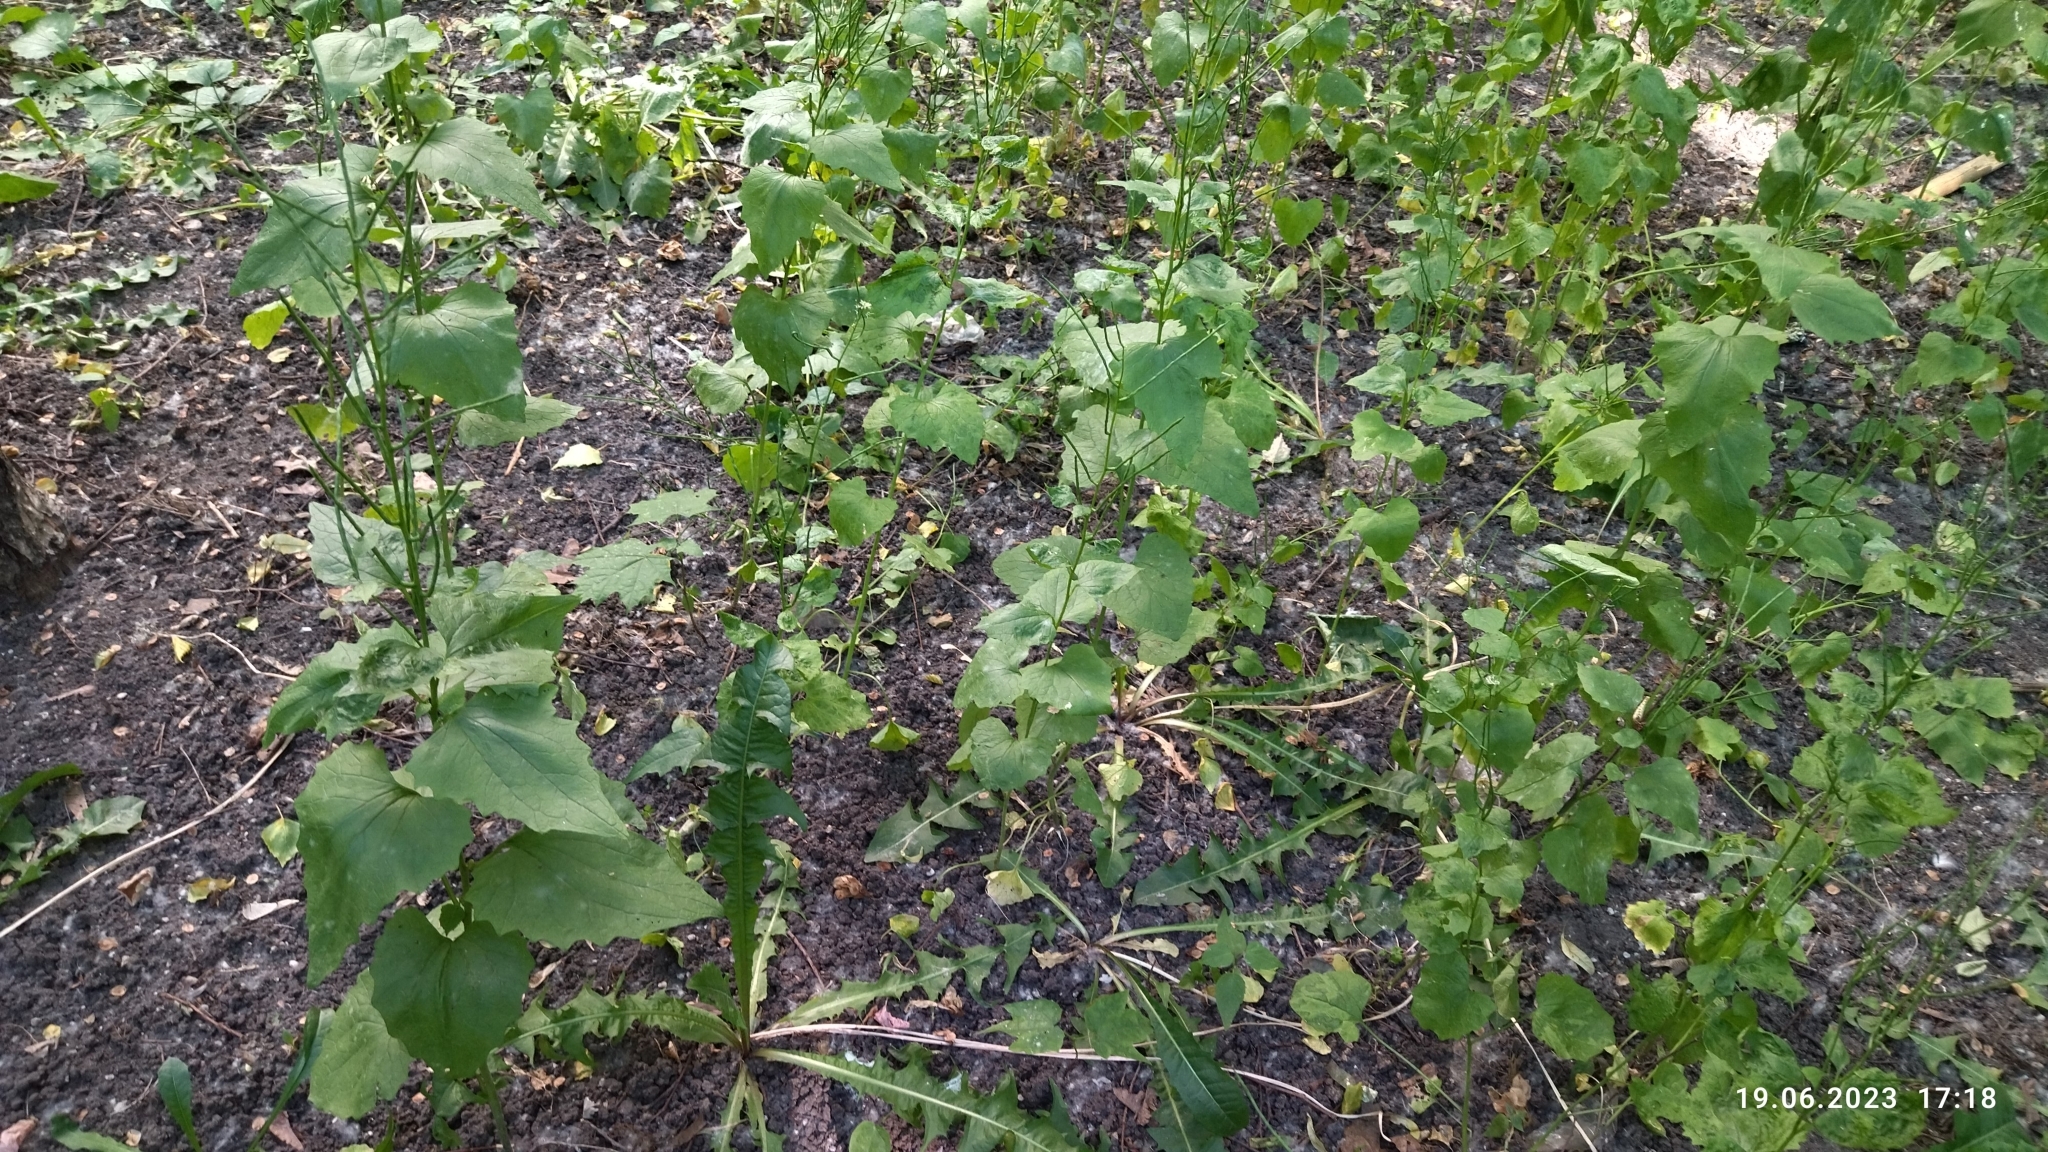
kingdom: Plantae
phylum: Tracheophyta
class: Magnoliopsida
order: Brassicales
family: Brassicaceae
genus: Alliaria
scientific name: Alliaria petiolata
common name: Garlic mustard
